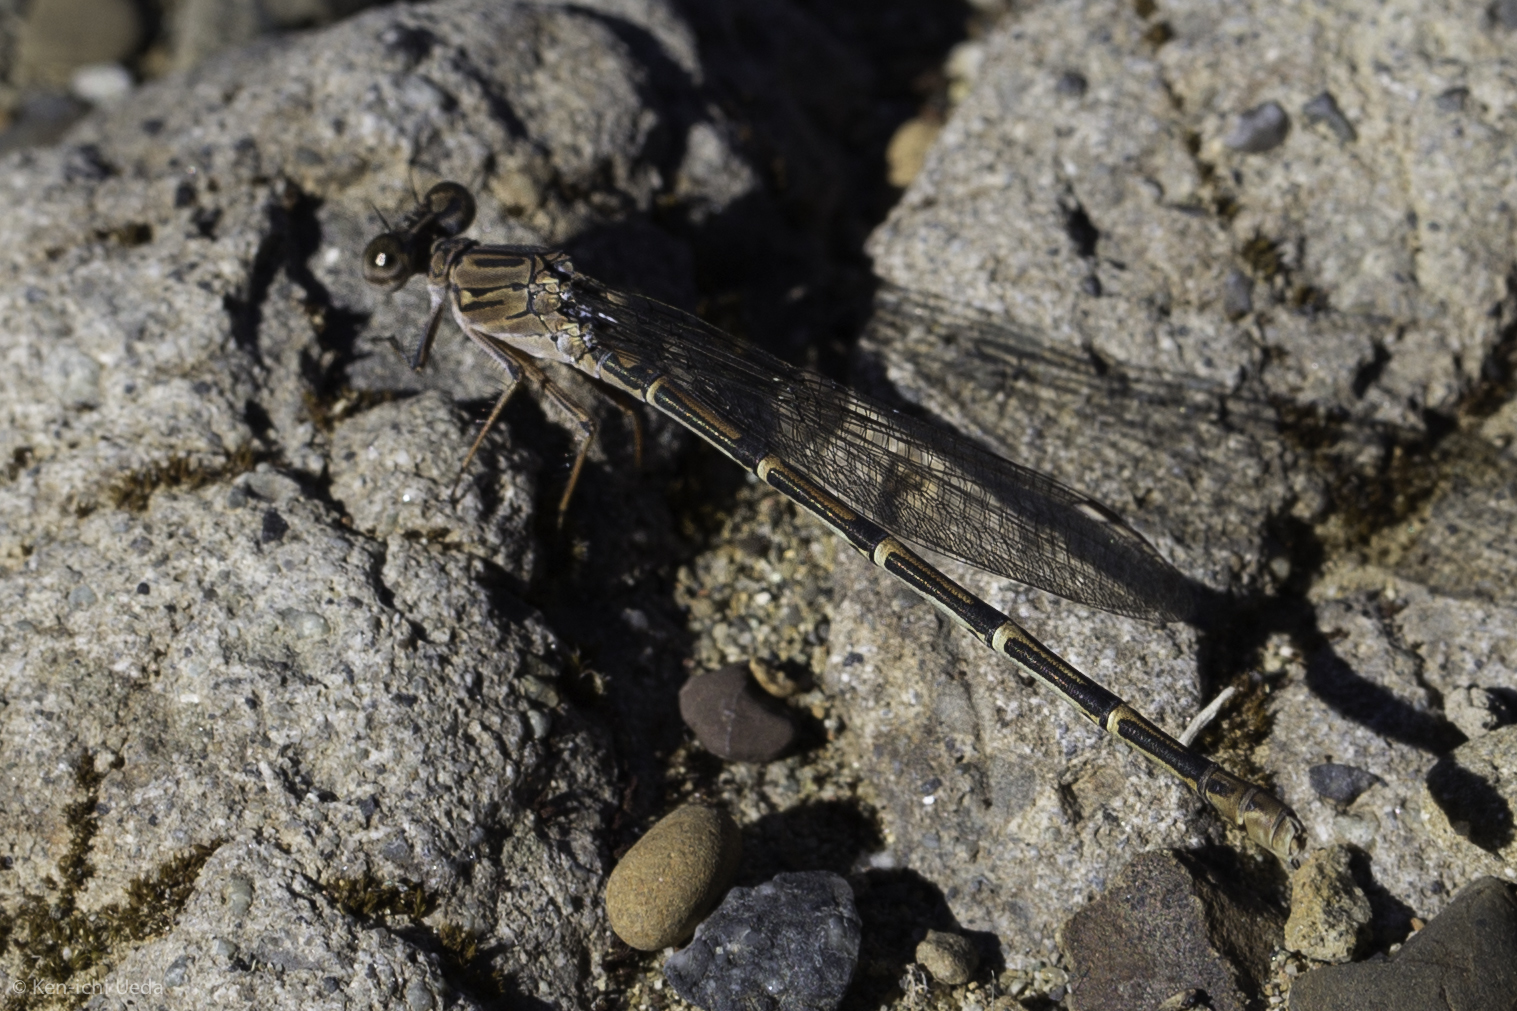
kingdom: Animalia
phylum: Arthropoda
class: Insecta
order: Odonata
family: Coenagrionidae
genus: Argia
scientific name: Argia lugens
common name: Sooty dancer
